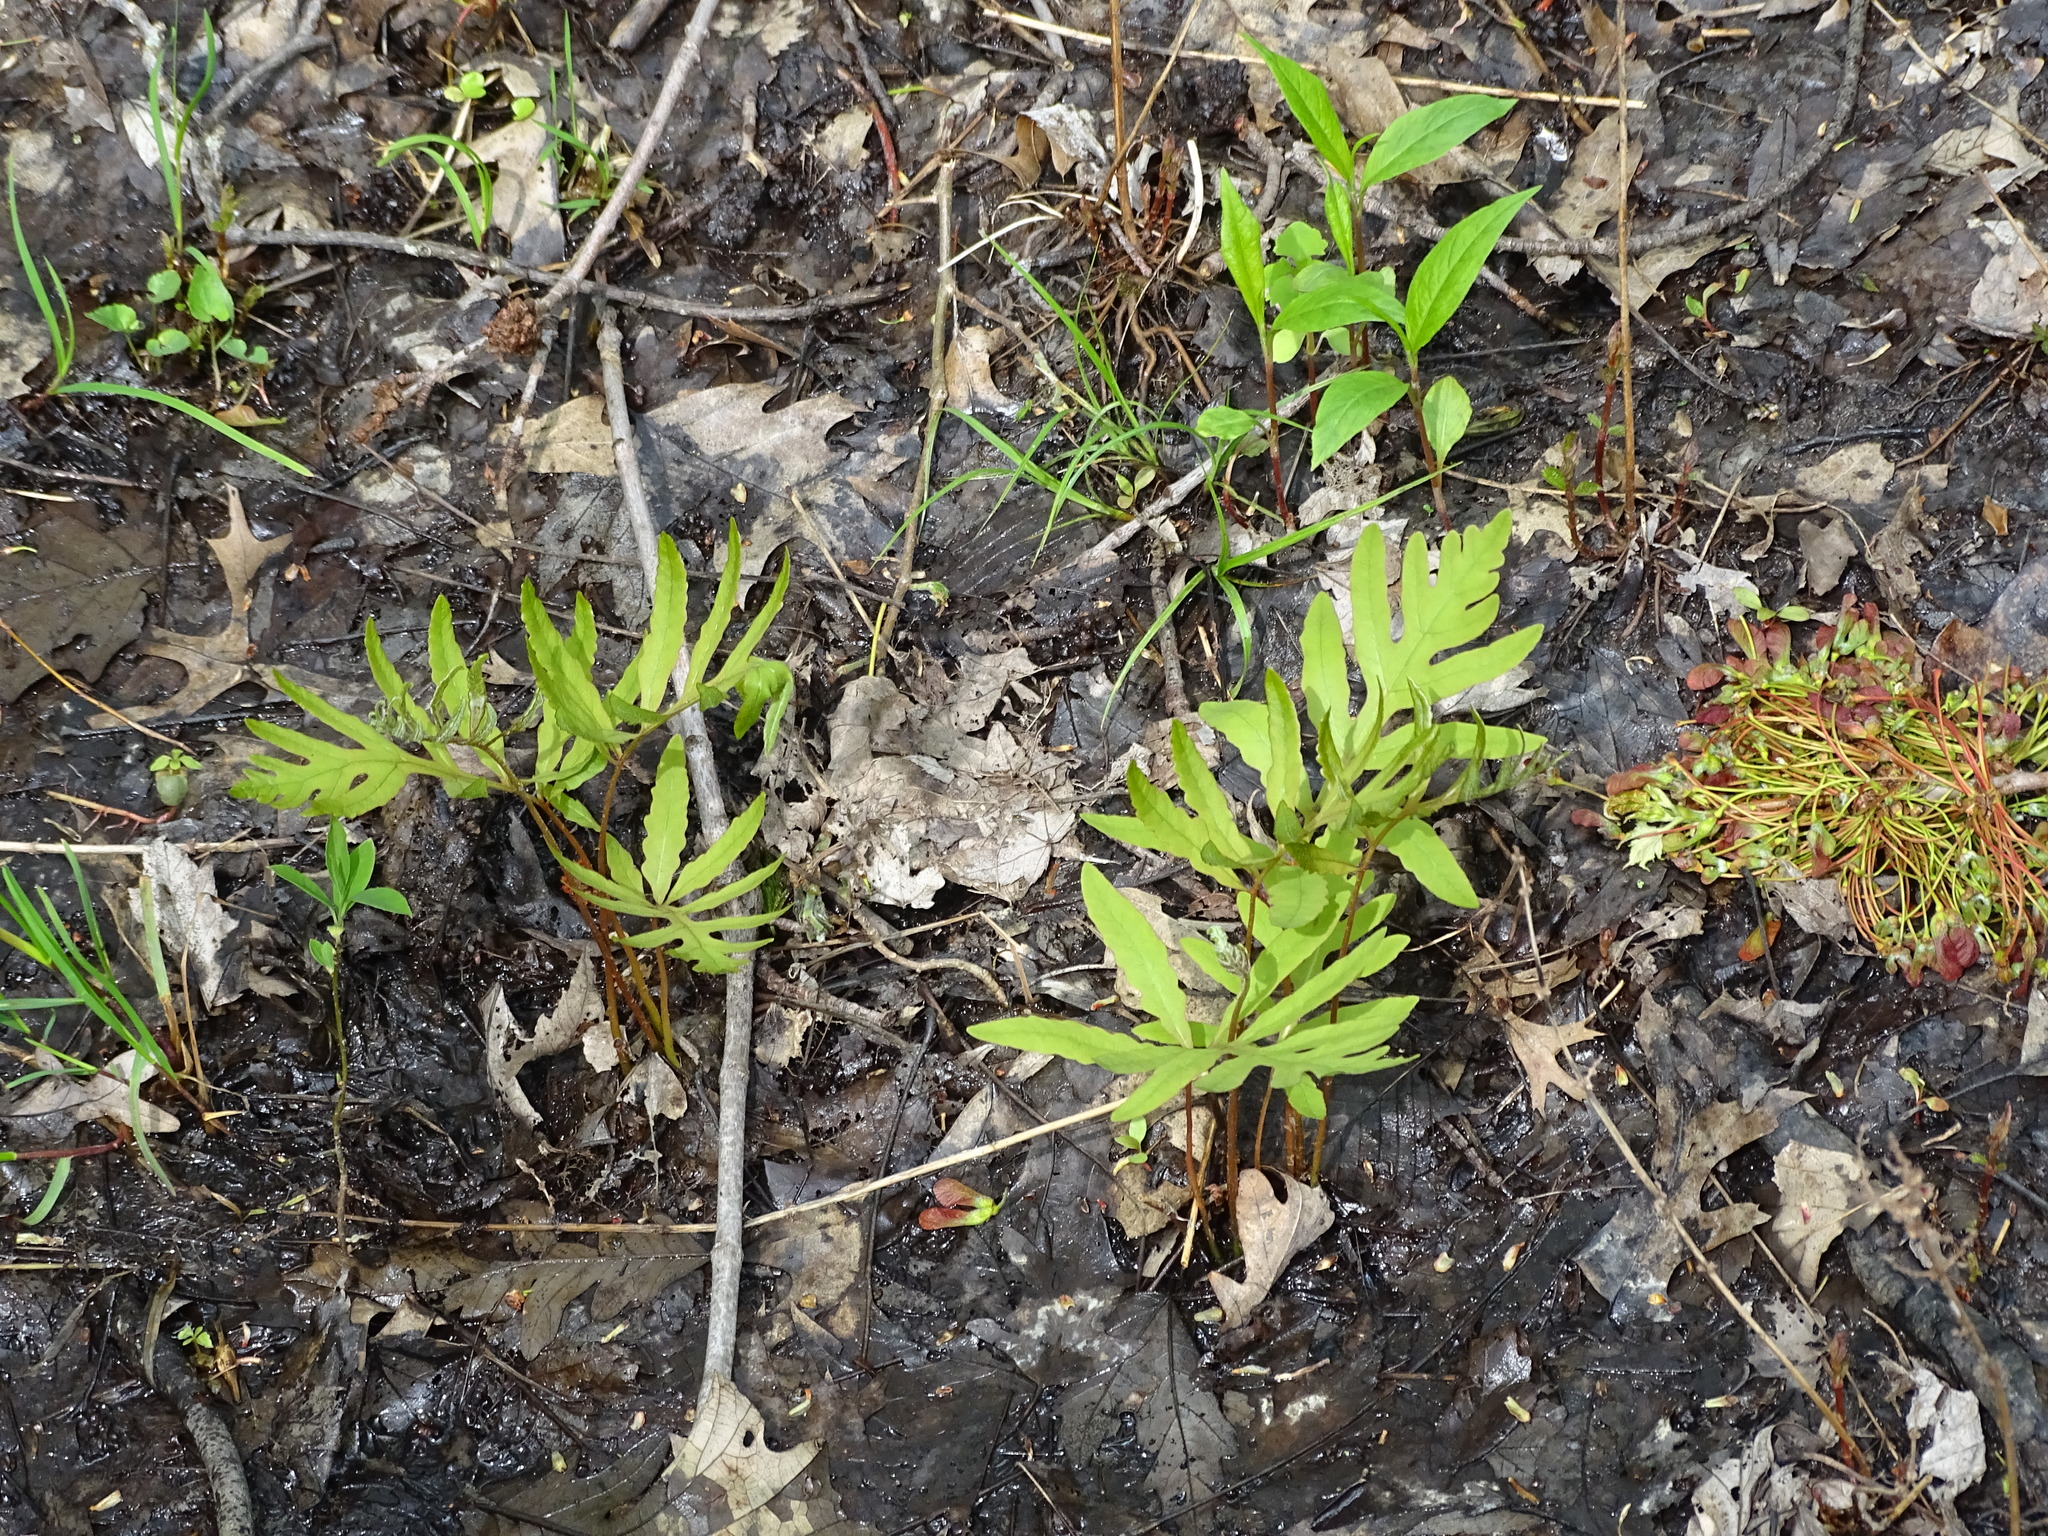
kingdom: Plantae
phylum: Tracheophyta
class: Polypodiopsida
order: Polypodiales
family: Onocleaceae
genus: Onoclea
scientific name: Onoclea sensibilis
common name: Sensitive fern
